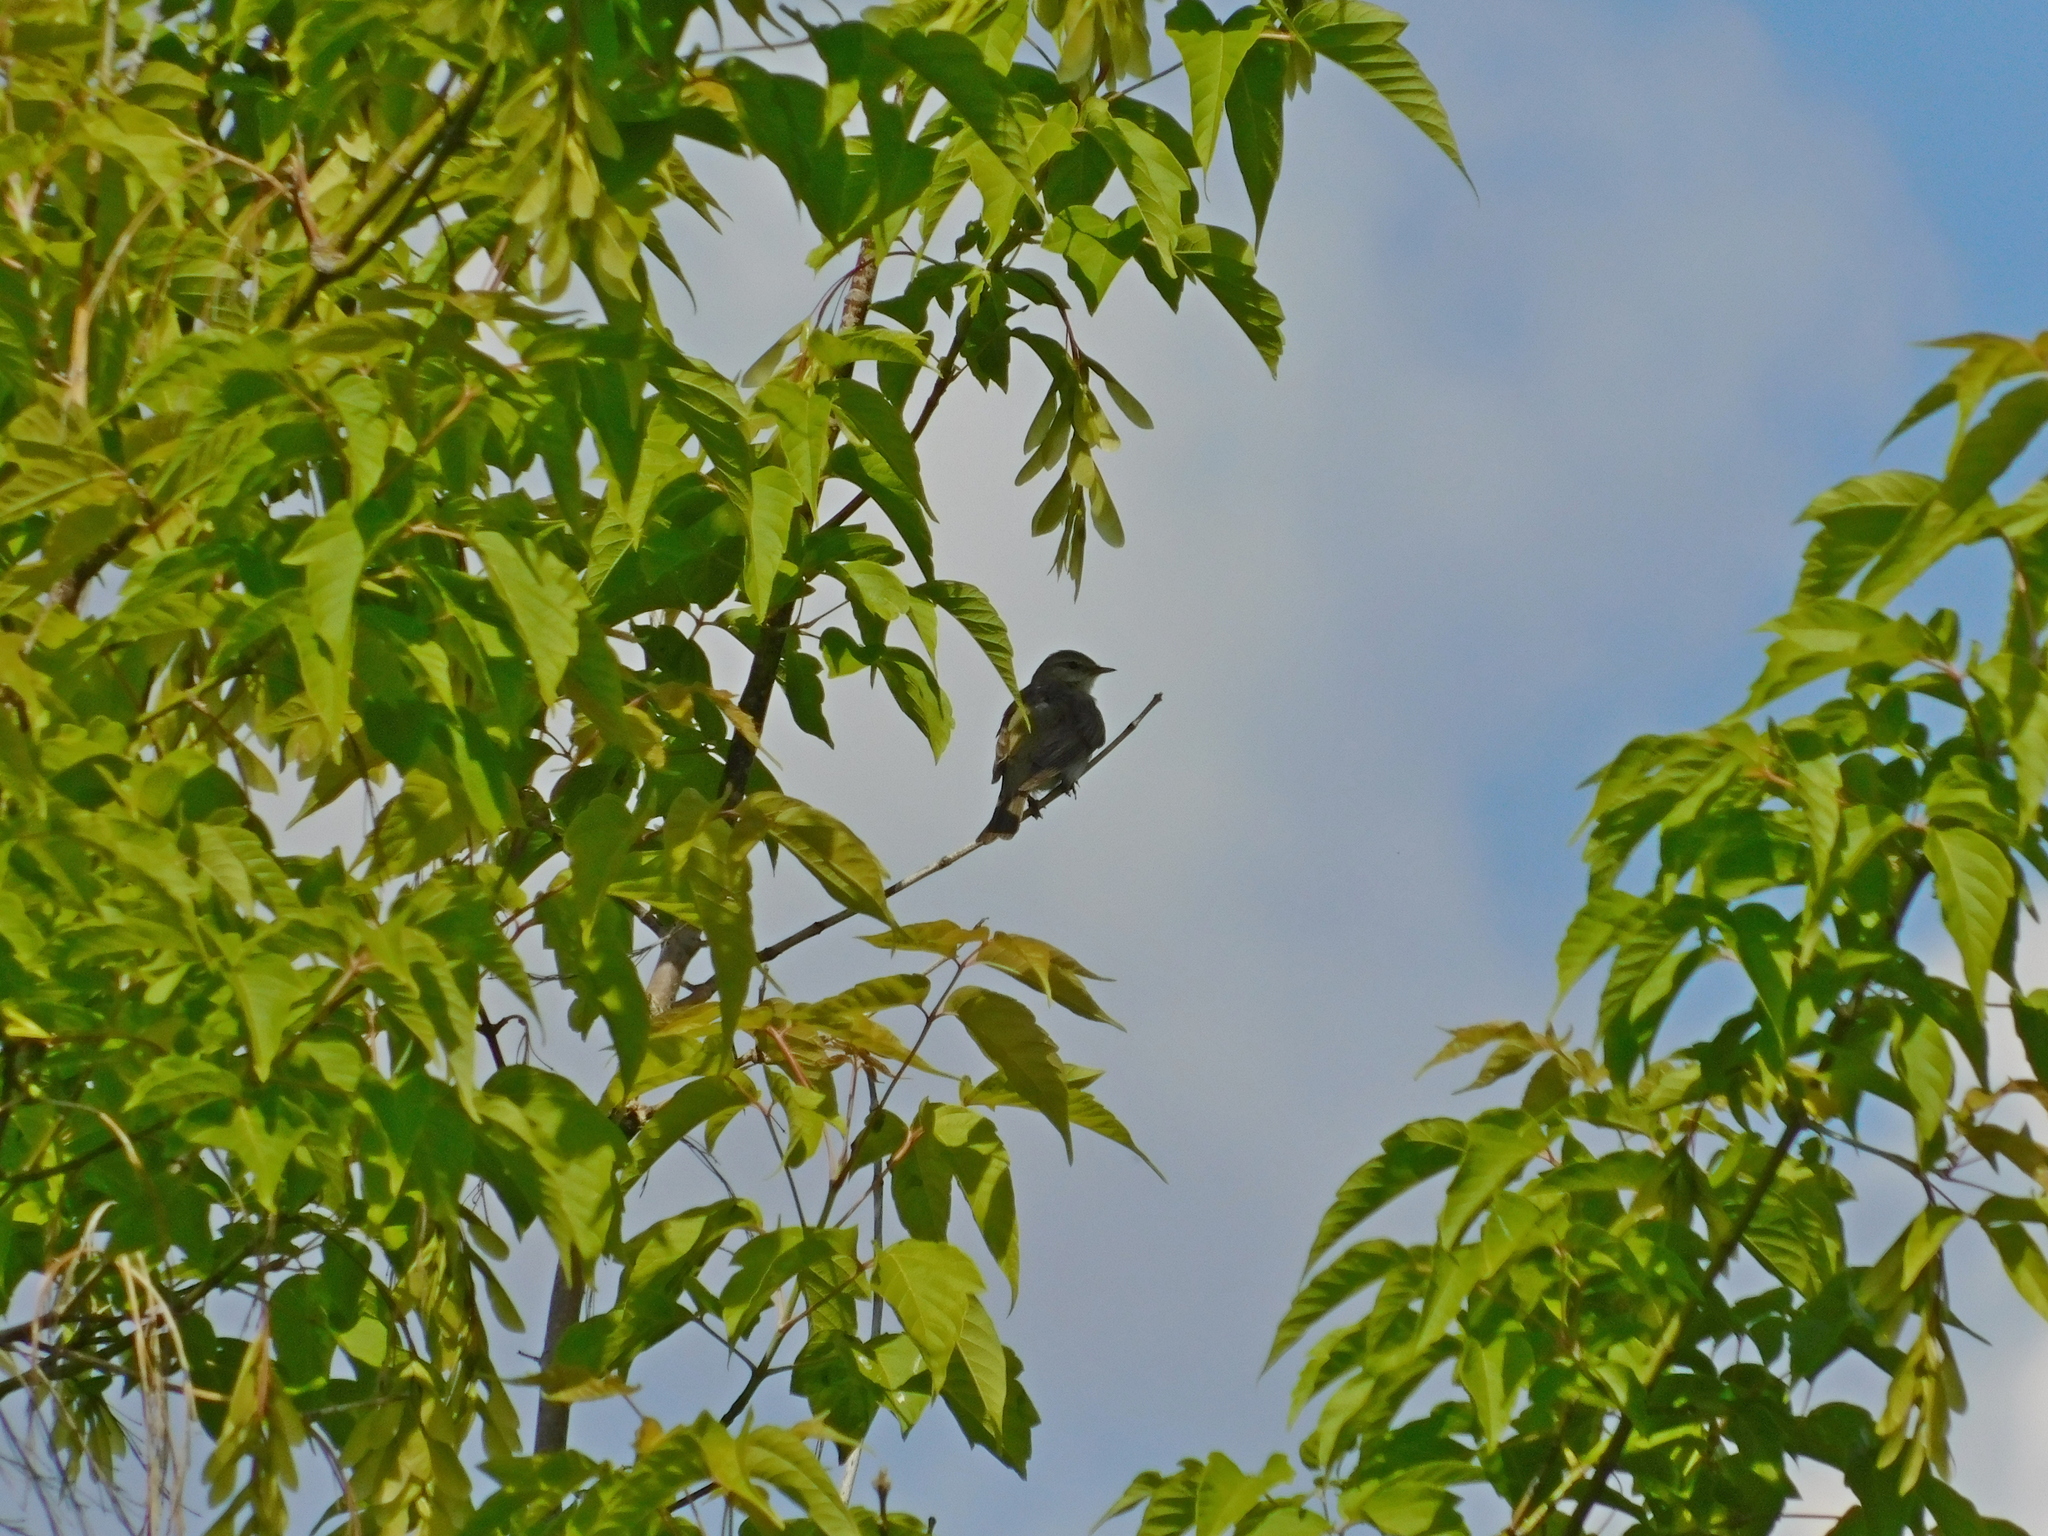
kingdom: Animalia
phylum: Chordata
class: Aves
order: Passeriformes
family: Phylloscopidae
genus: Phylloscopus
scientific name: Phylloscopus trochilus
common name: Willow warbler
